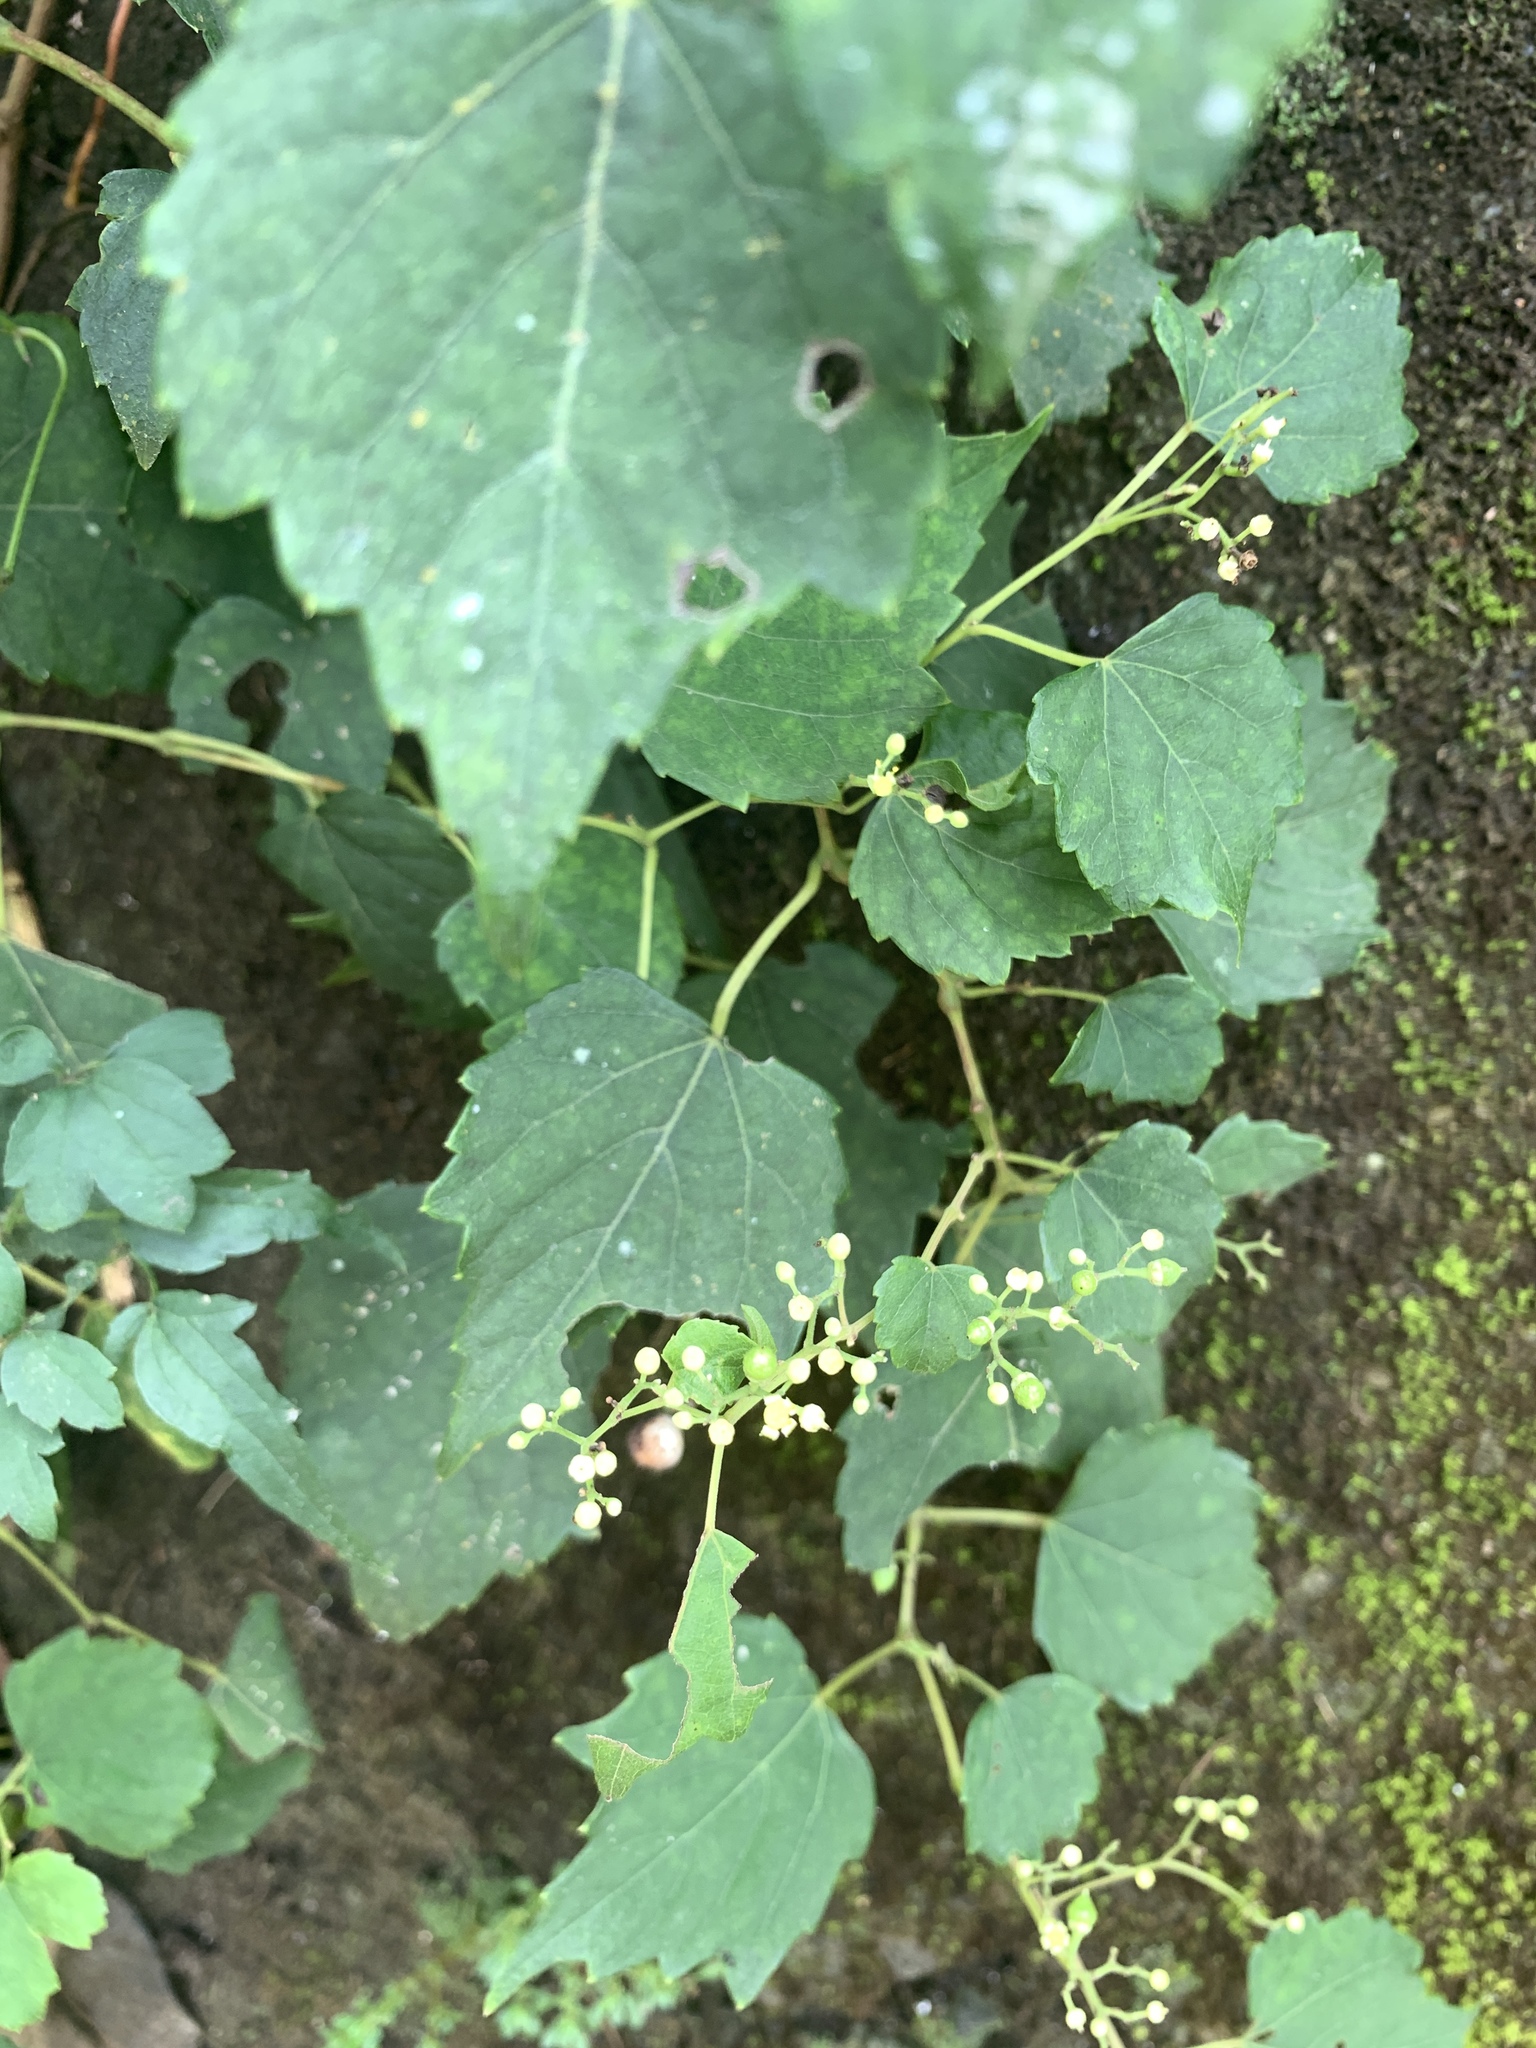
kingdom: Plantae
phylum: Tracheophyta
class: Magnoliopsida
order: Vitales
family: Vitaceae
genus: Ampelopsis
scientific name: Ampelopsis glandulosa
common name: Amur peppervine
